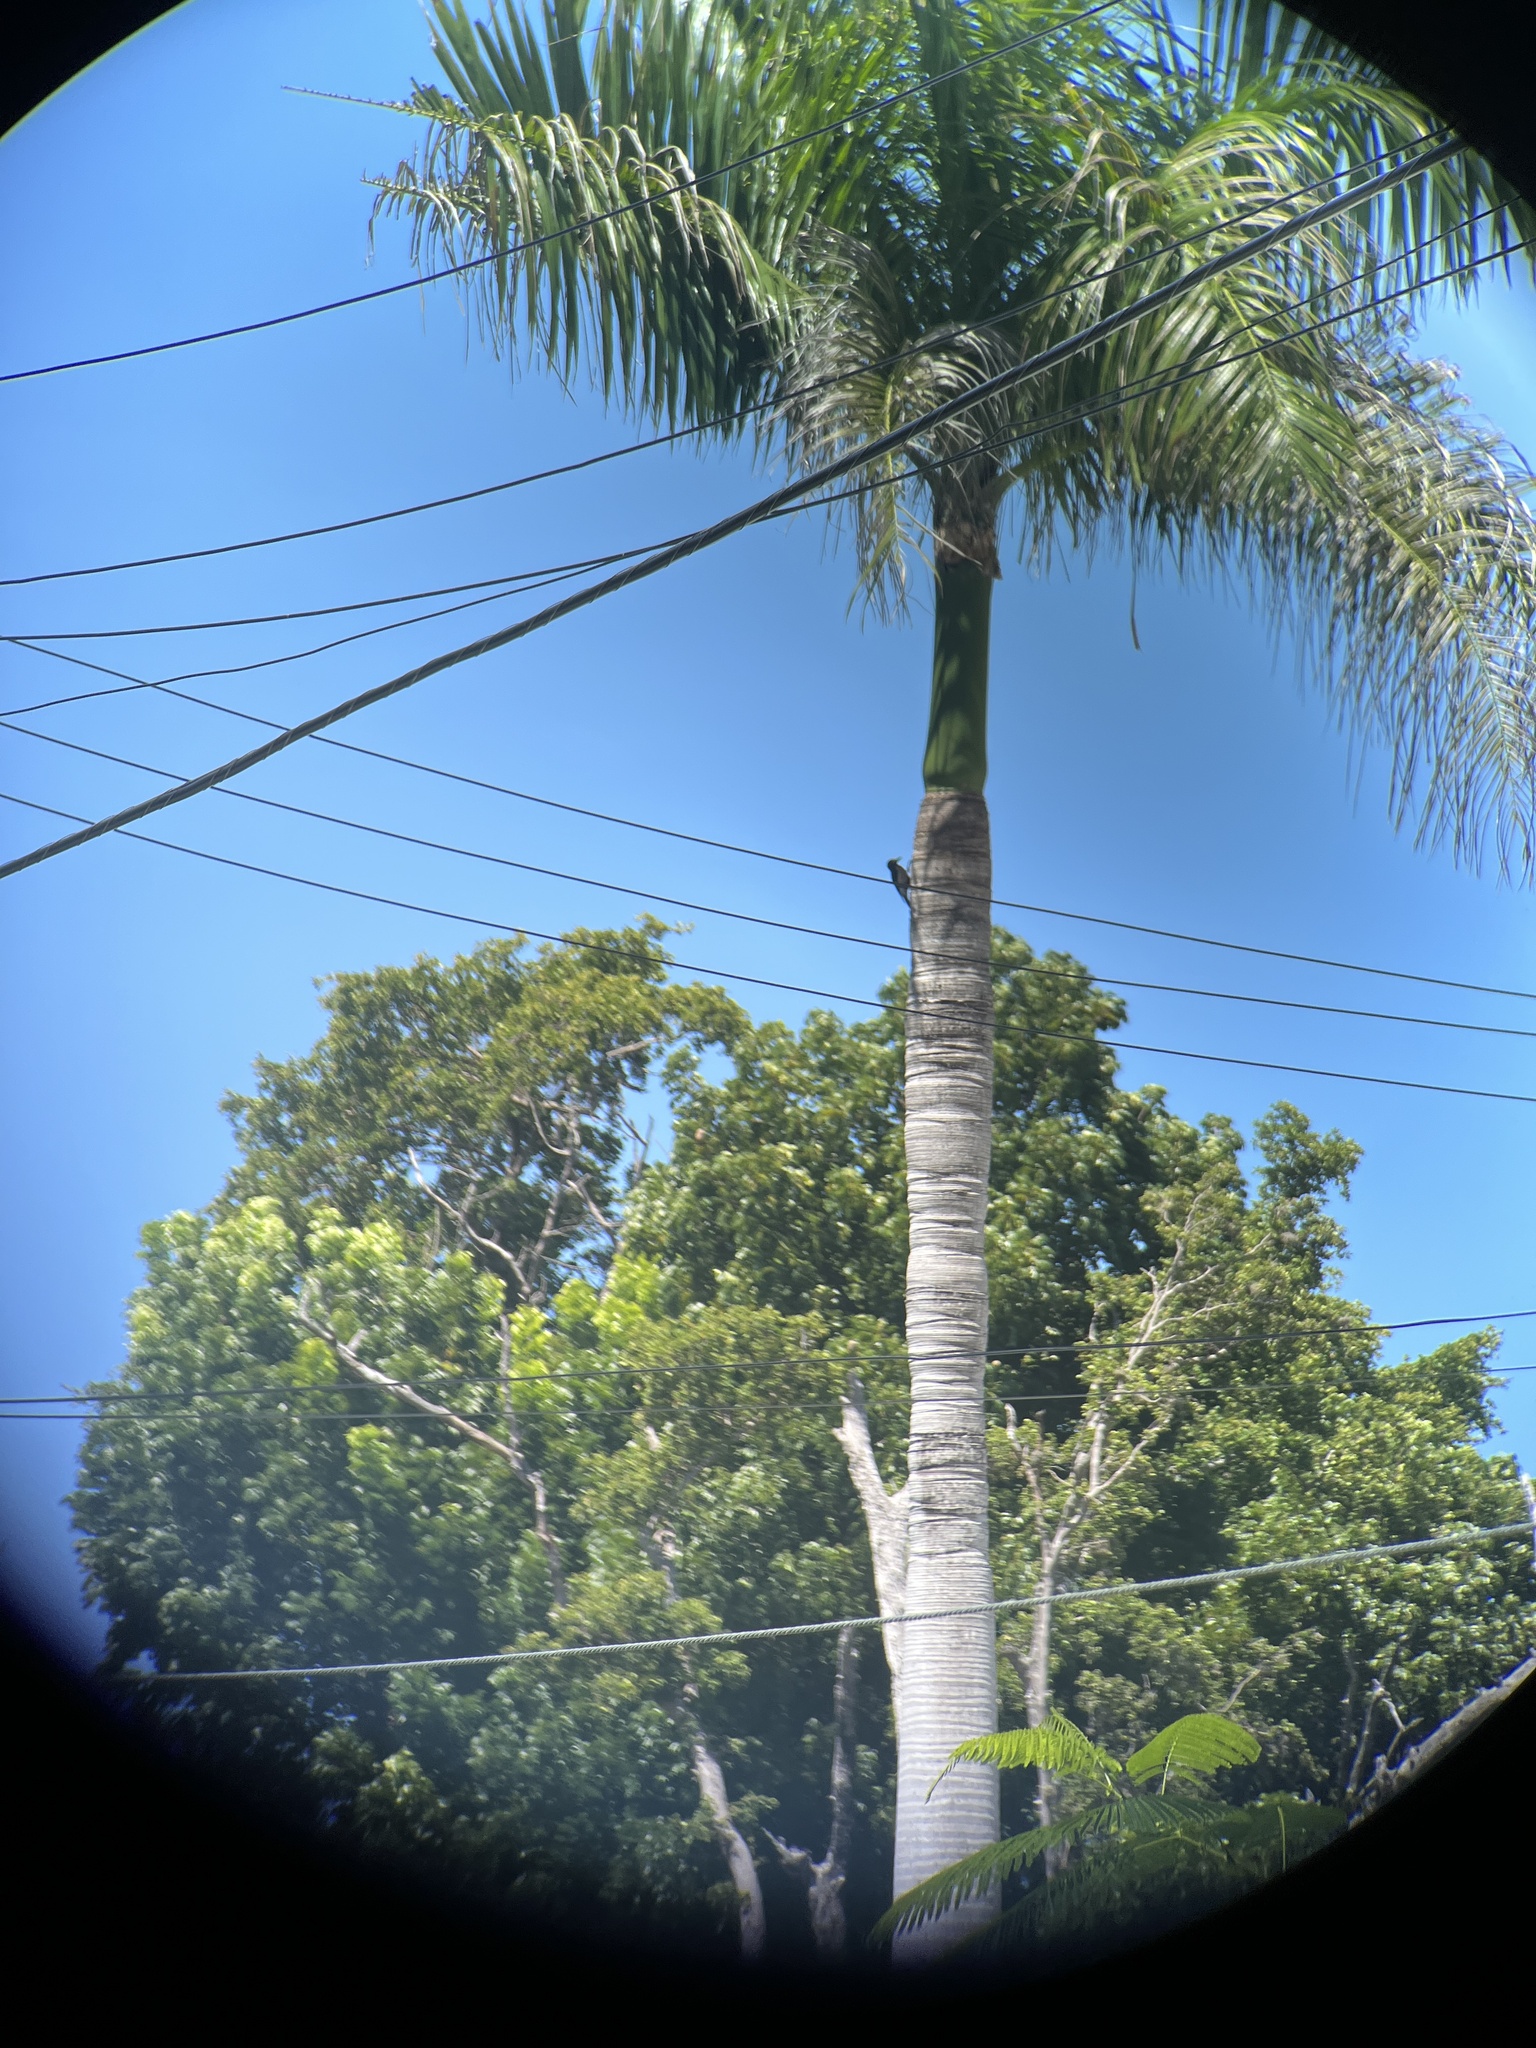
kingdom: Animalia
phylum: Chordata
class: Aves
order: Piciformes
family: Picidae
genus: Melanerpes
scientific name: Melanerpes portoricensis
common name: Puerto rican woodpecker
